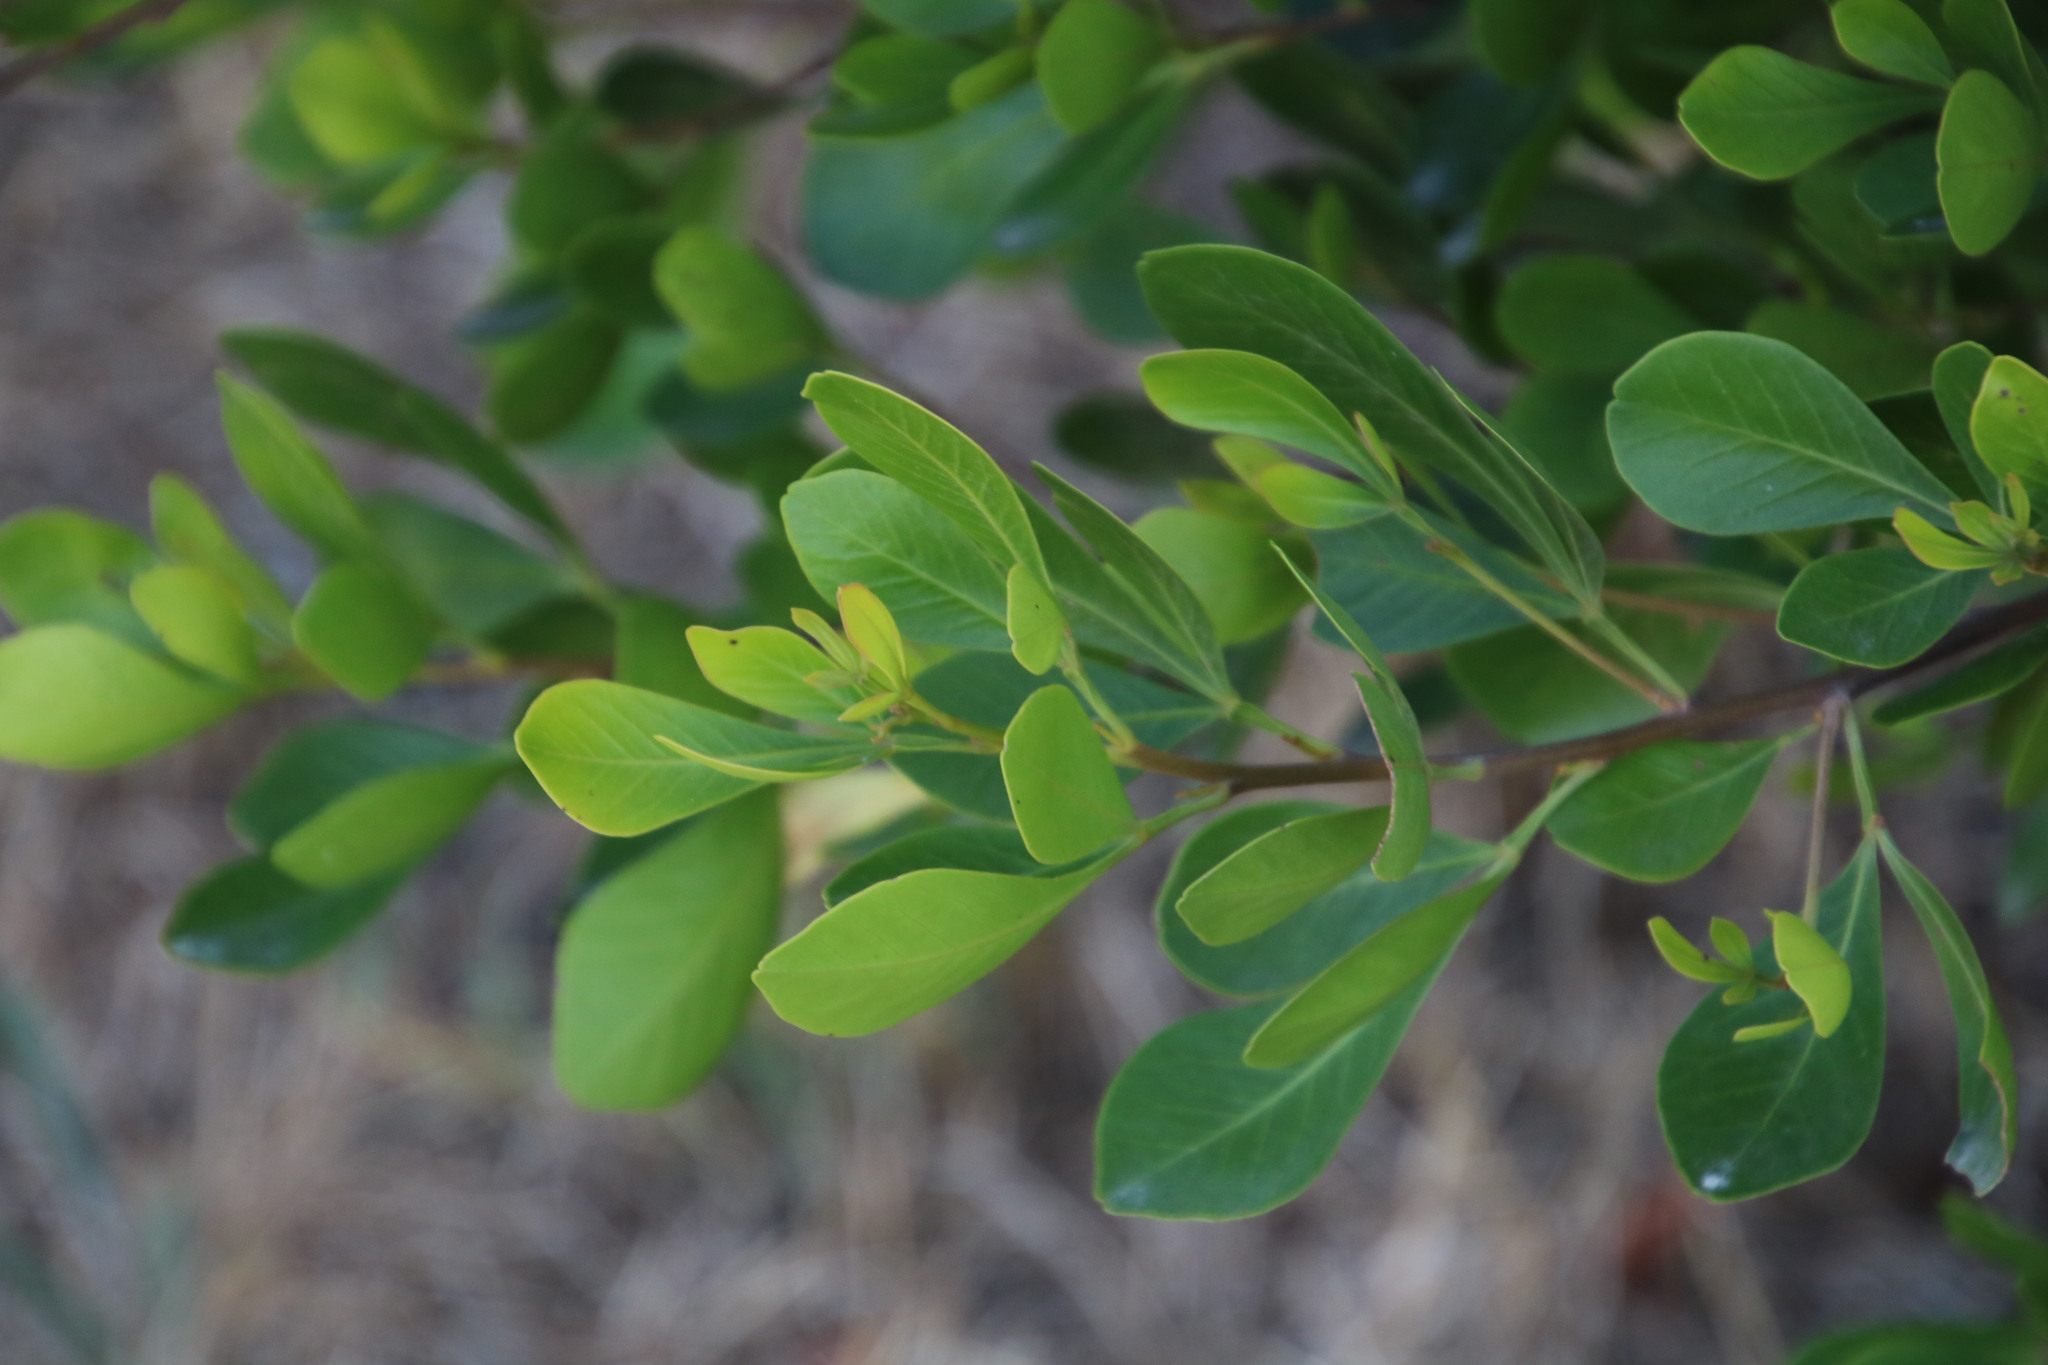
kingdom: Plantae
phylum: Tracheophyta
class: Magnoliopsida
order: Sapindales
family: Anacardiaceae
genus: Searsia
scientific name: Searsia lucida
